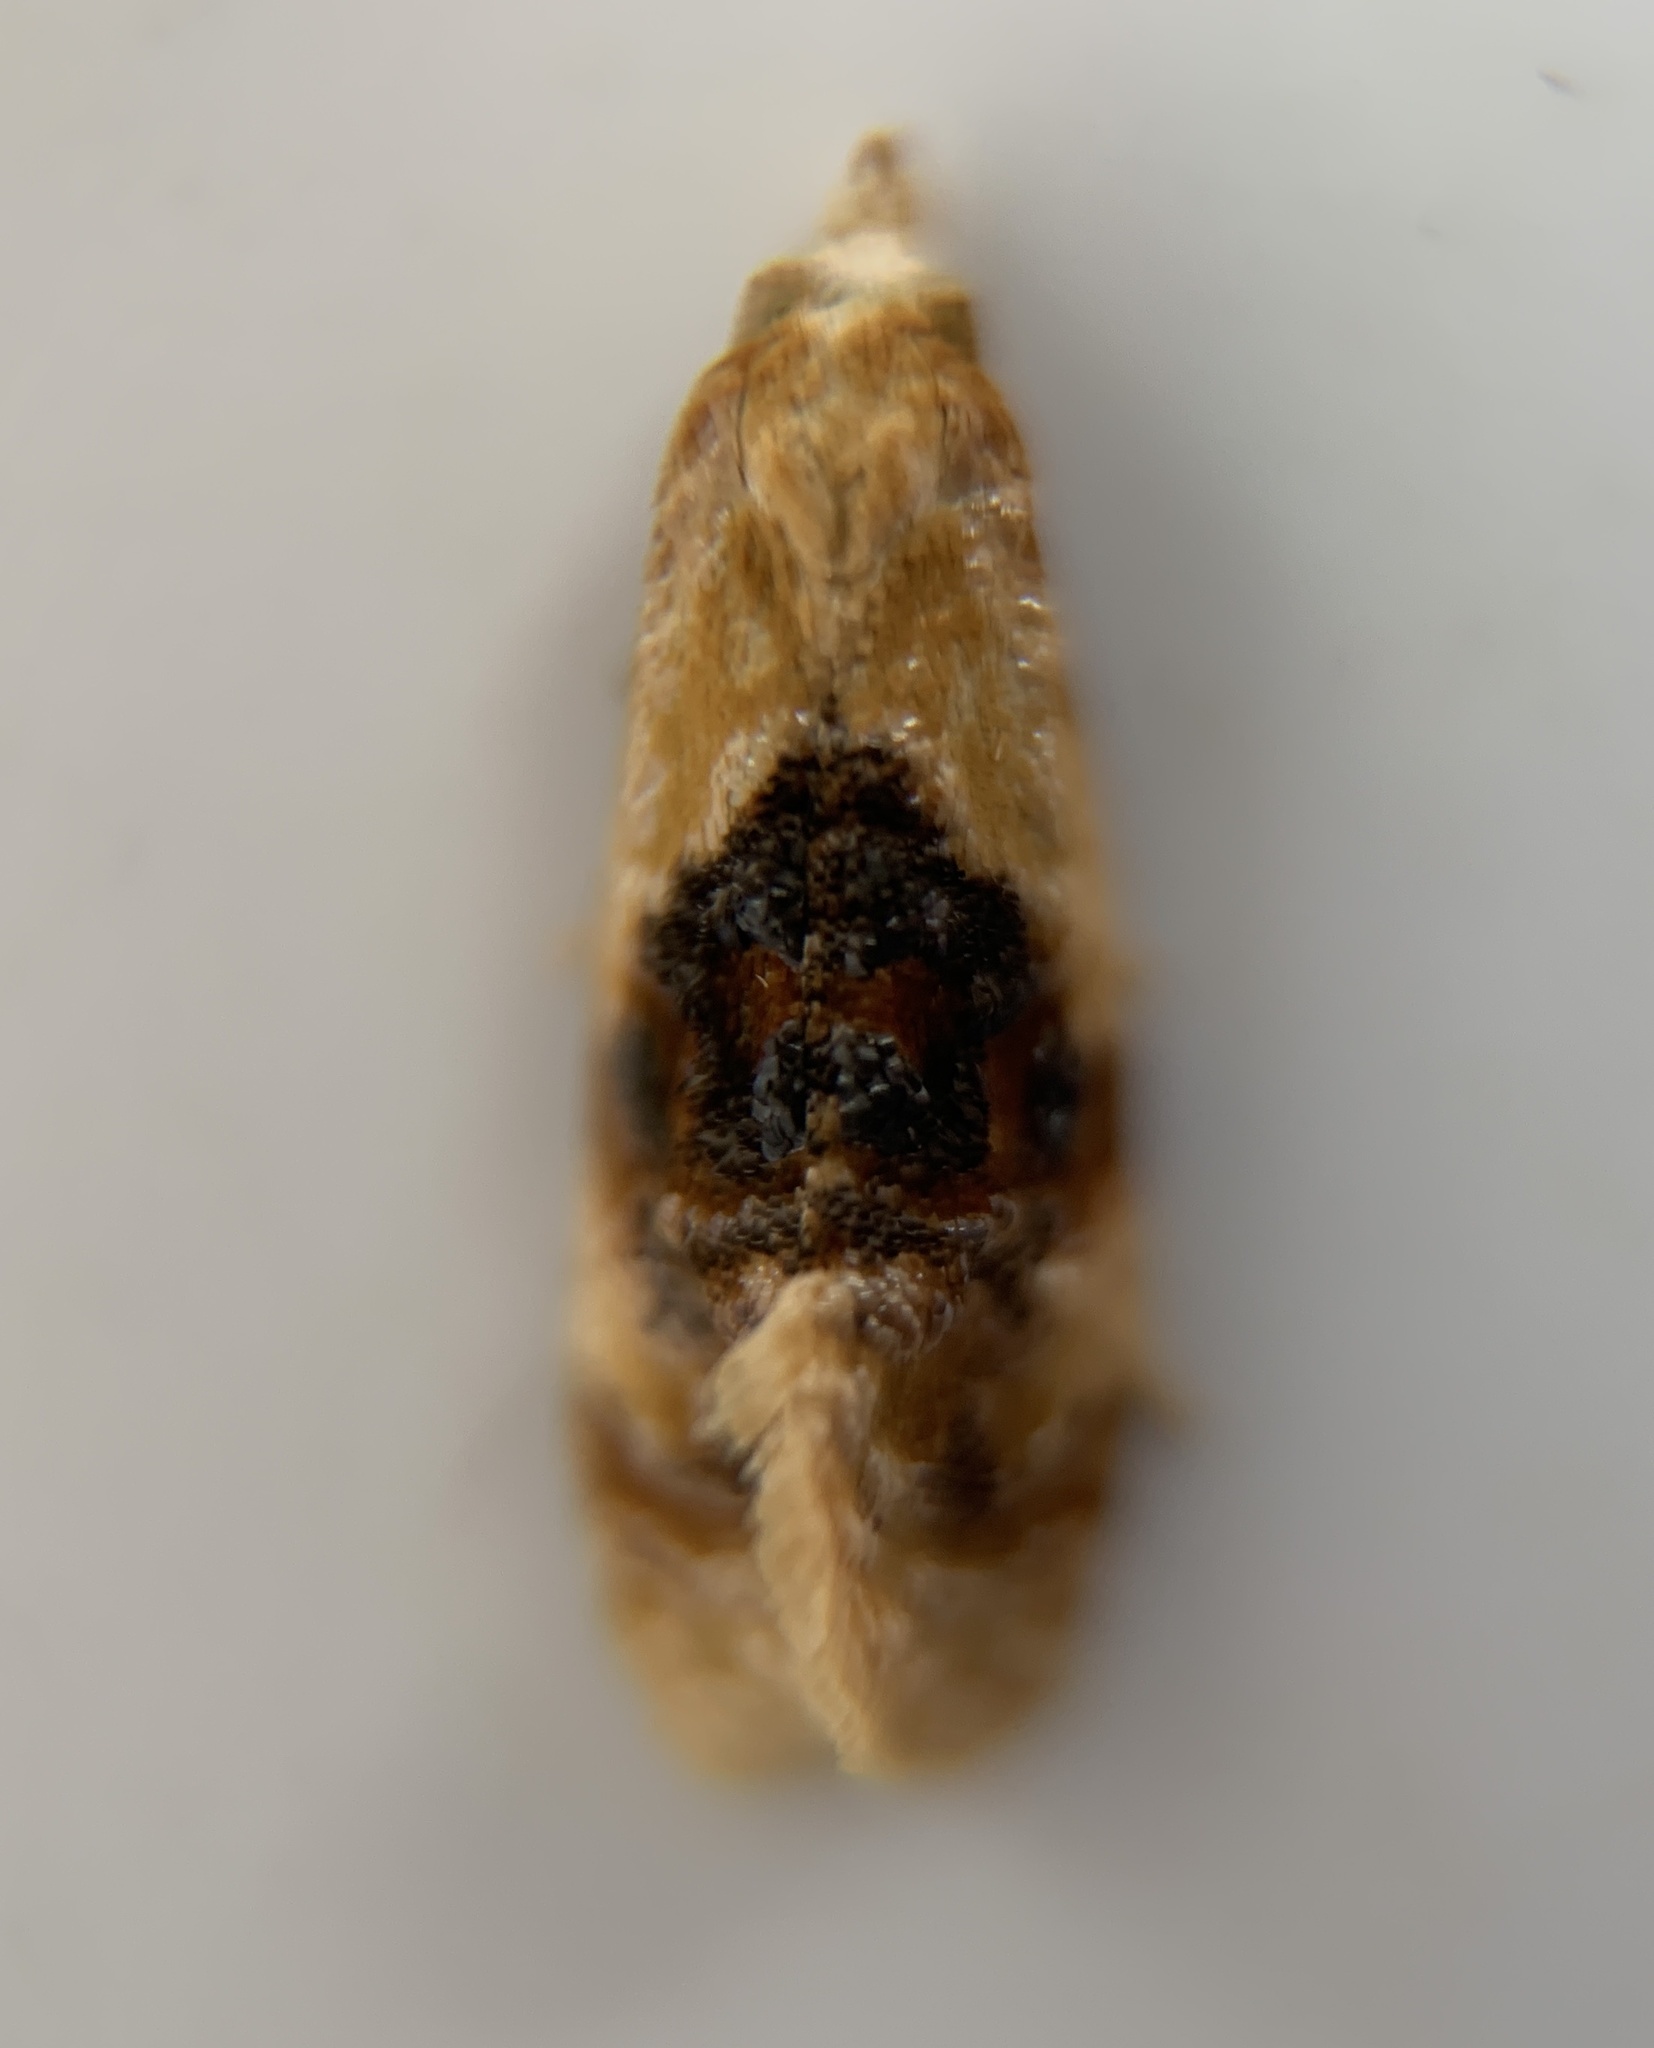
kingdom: Animalia
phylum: Arthropoda
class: Insecta
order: Lepidoptera
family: Tortricidae
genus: Cochylis
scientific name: Cochylis Cochylichroa hospes
